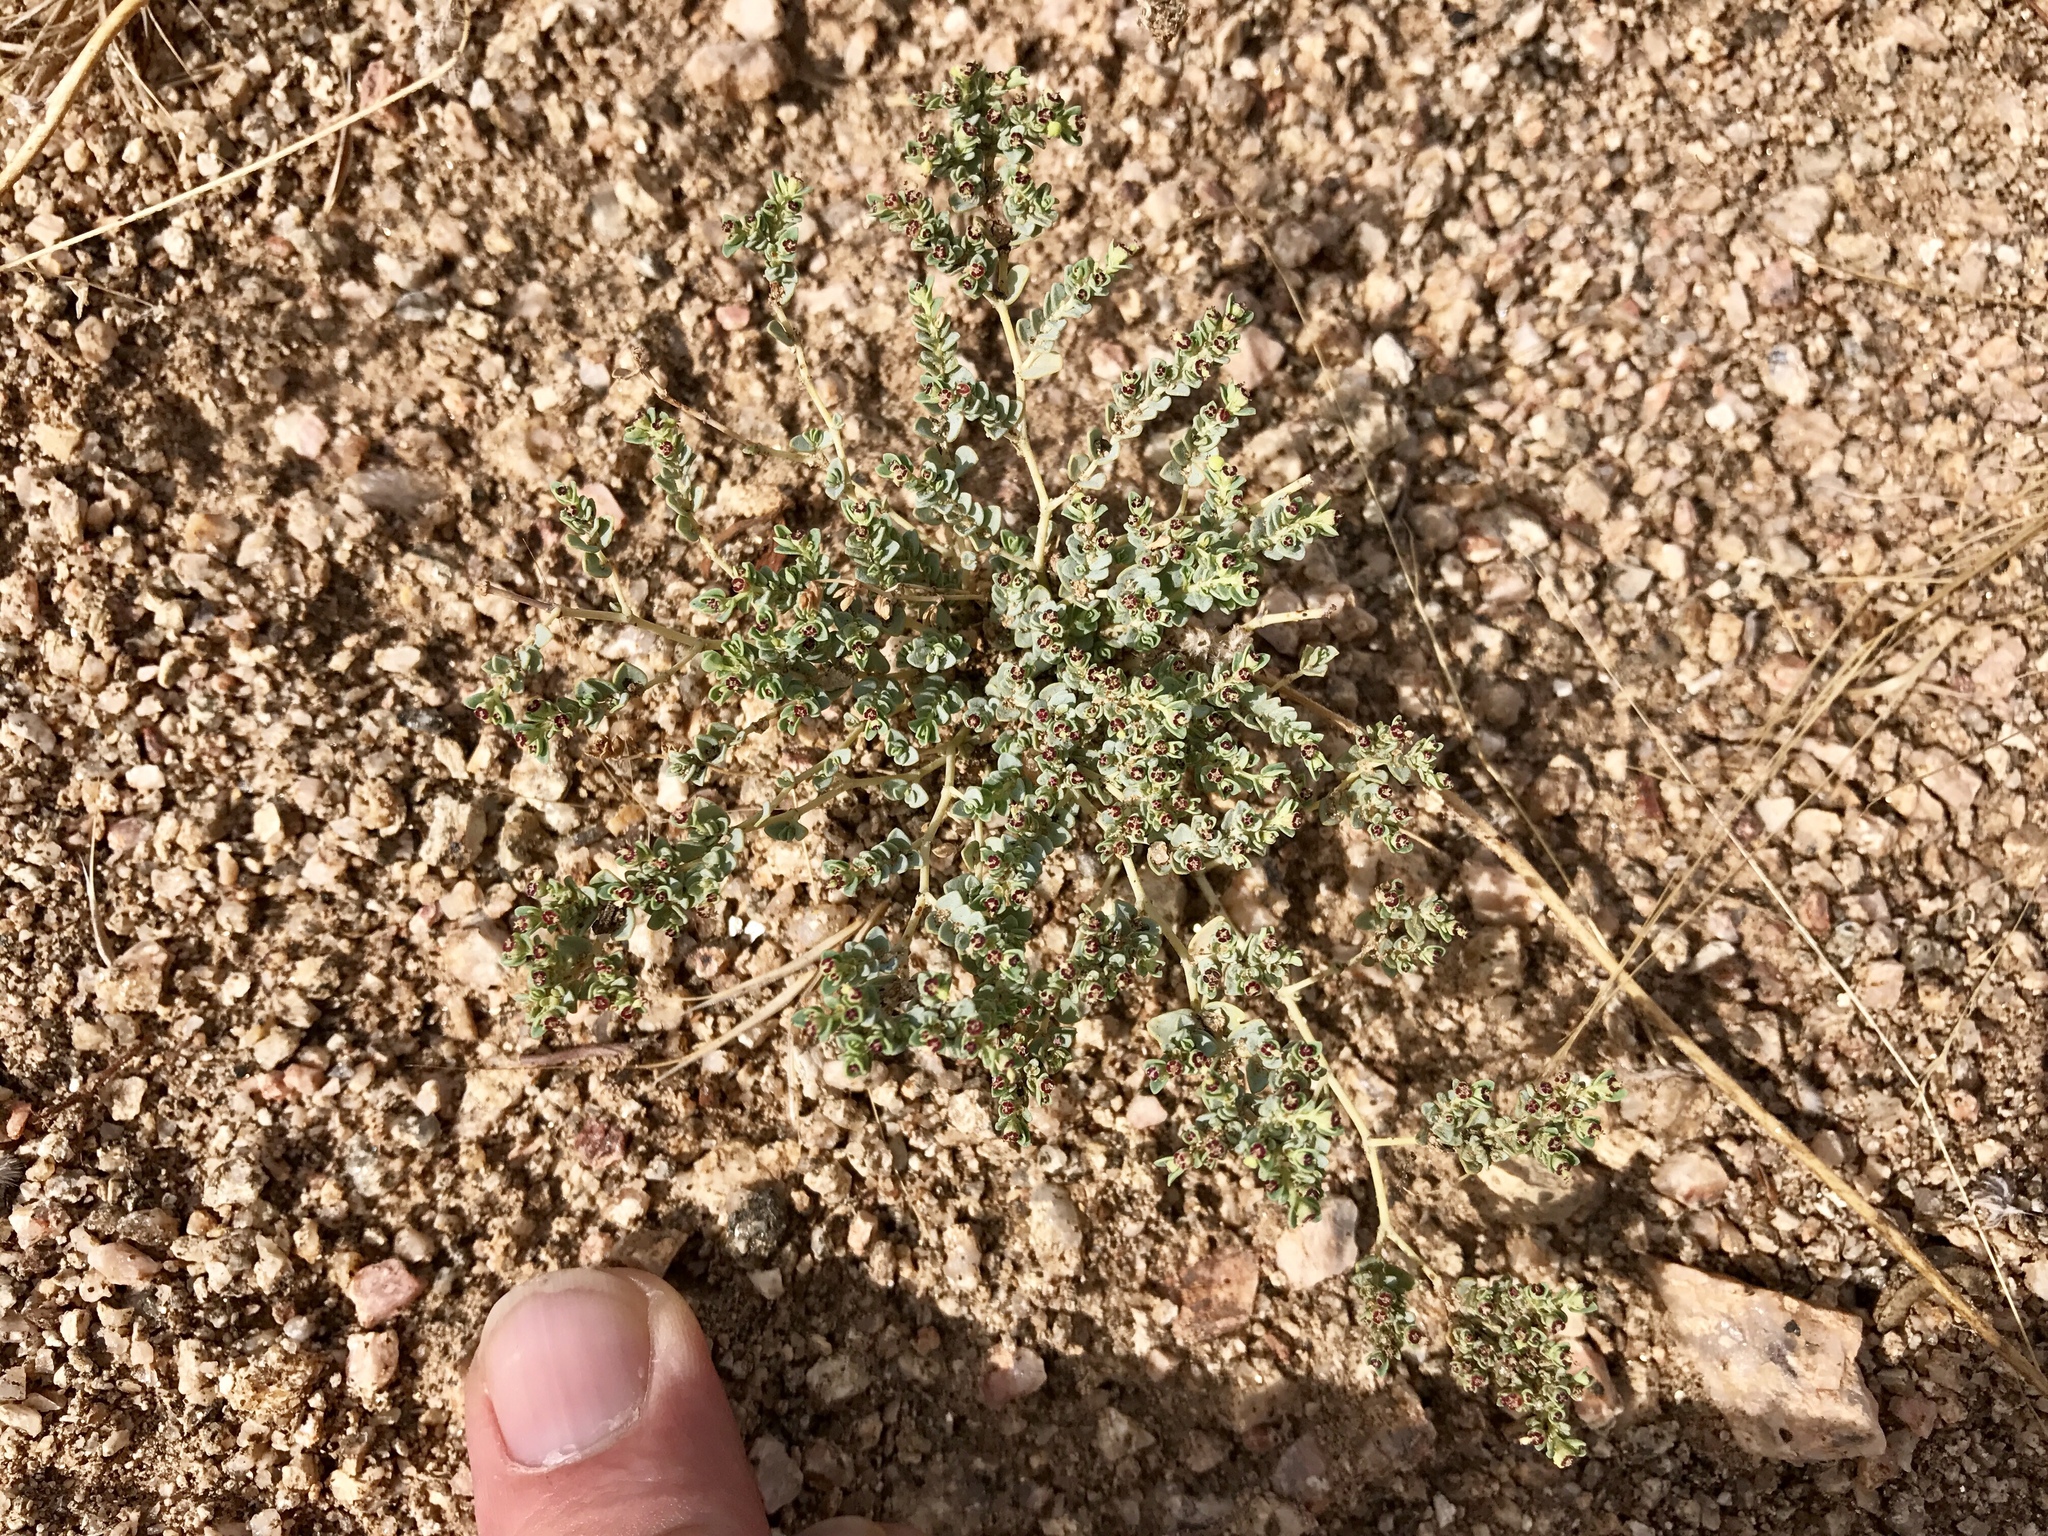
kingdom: Plantae
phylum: Tracheophyta
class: Magnoliopsida
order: Malpighiales
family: Euphorbiaceae
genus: Euphorbia
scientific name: Euphorbia polycarpa
